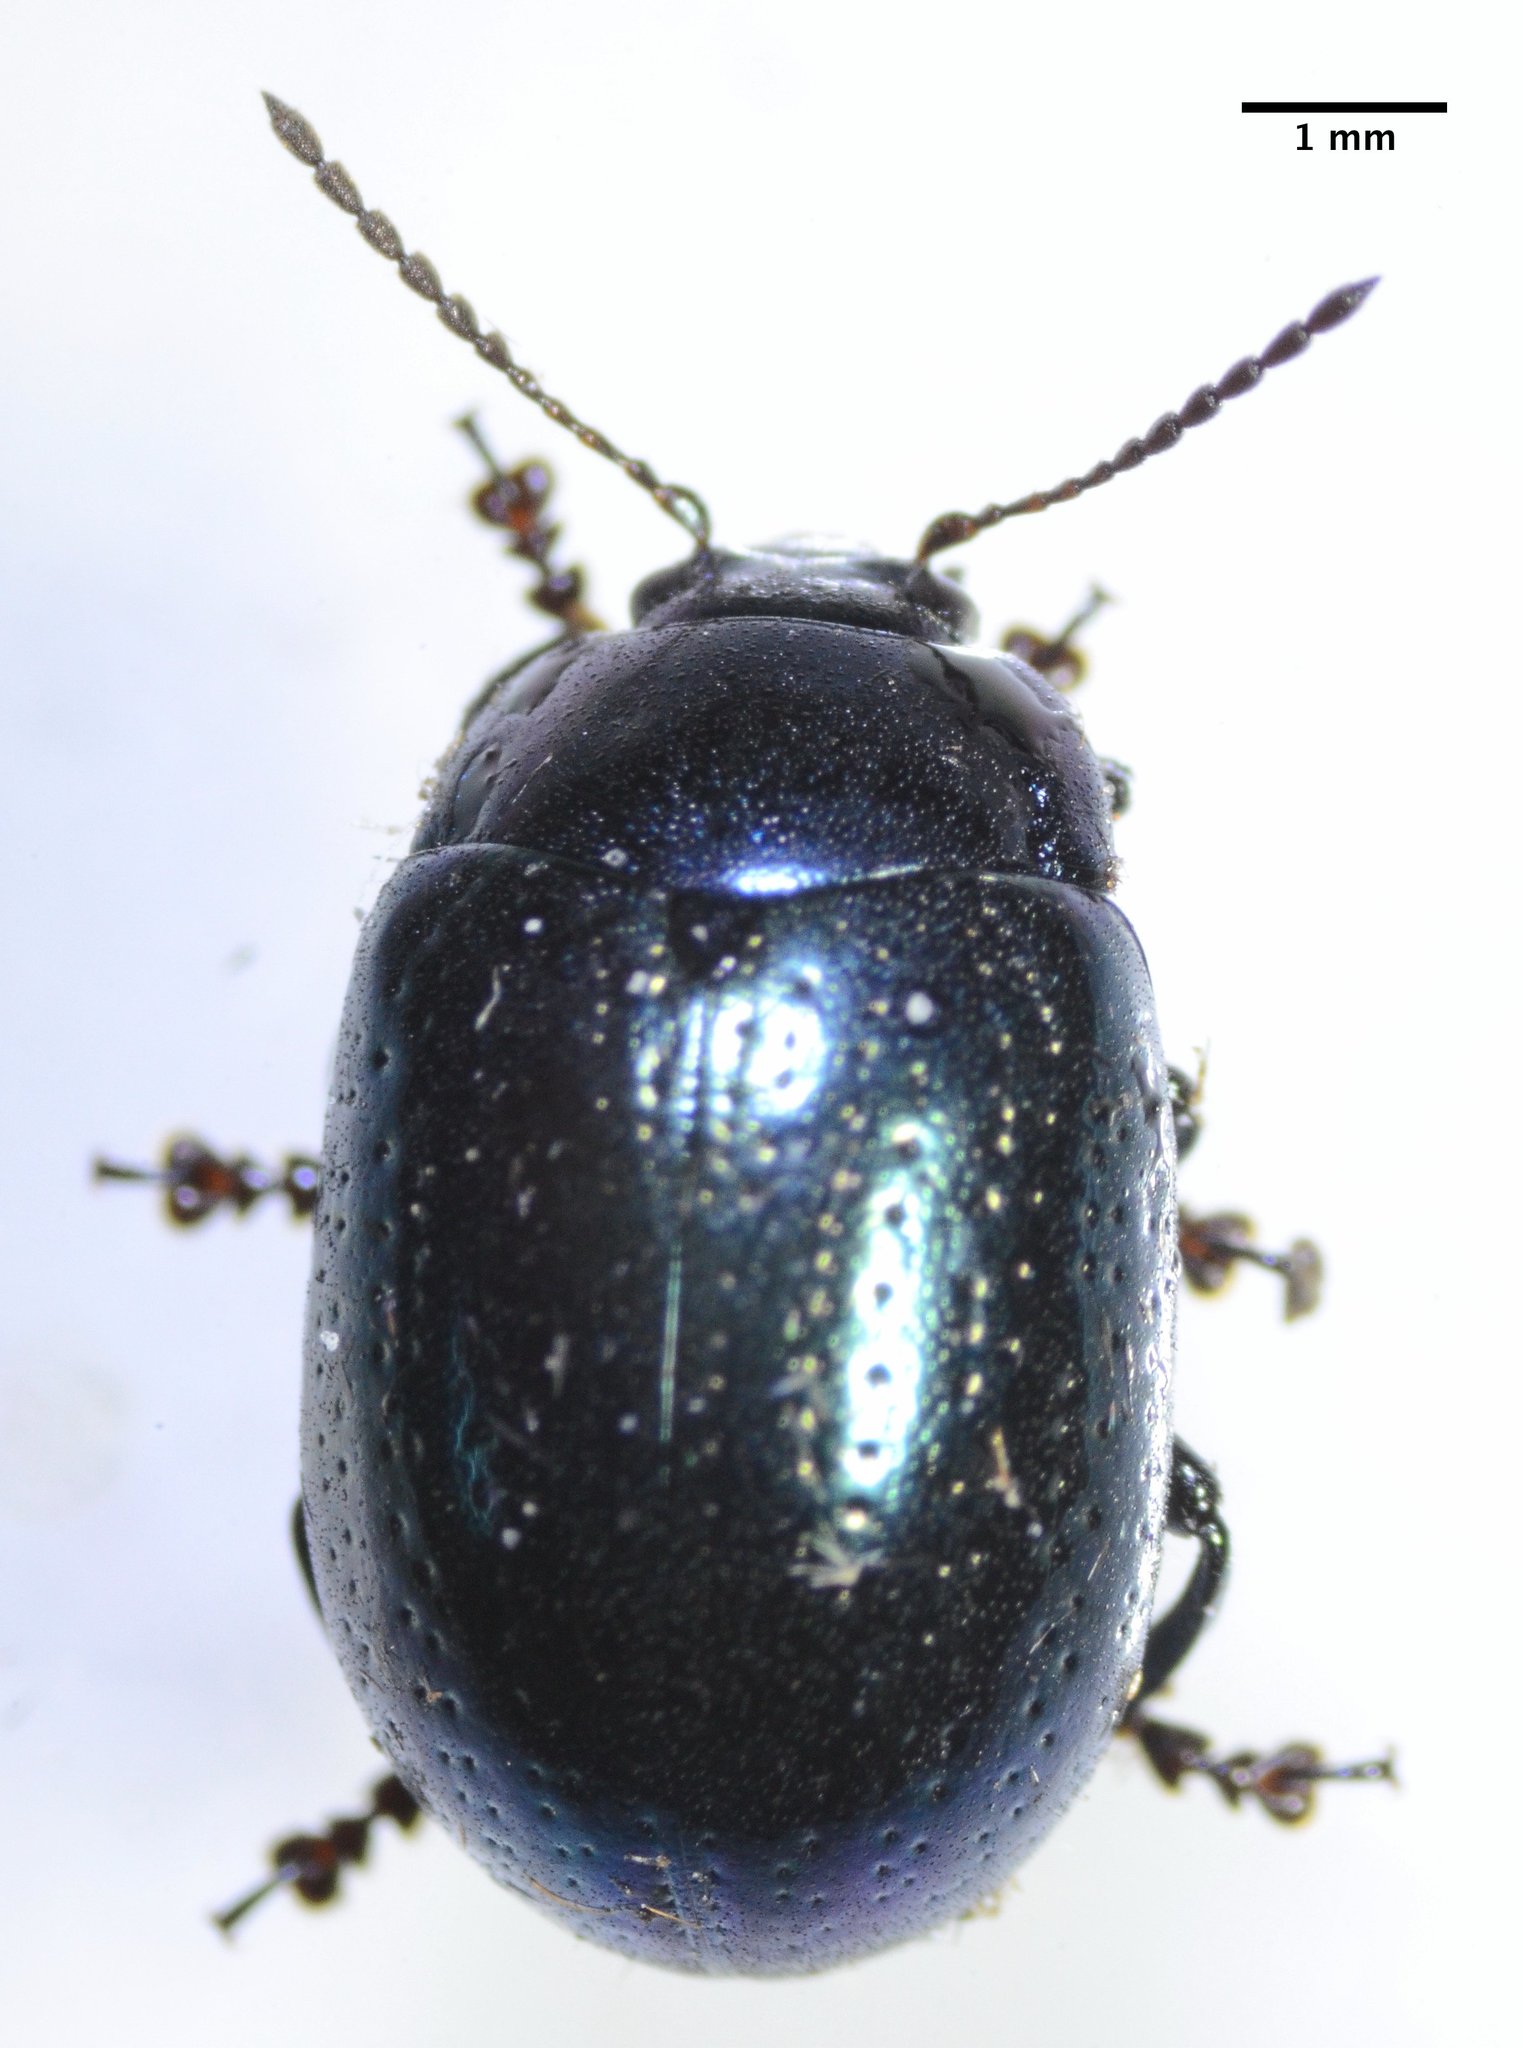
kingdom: Animalia
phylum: Arthropoda
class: Insecta
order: Coleoptera
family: Chrysomelidae
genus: Chrysolina
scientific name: Chrysolina quadrigemina
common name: Leaf beetle
